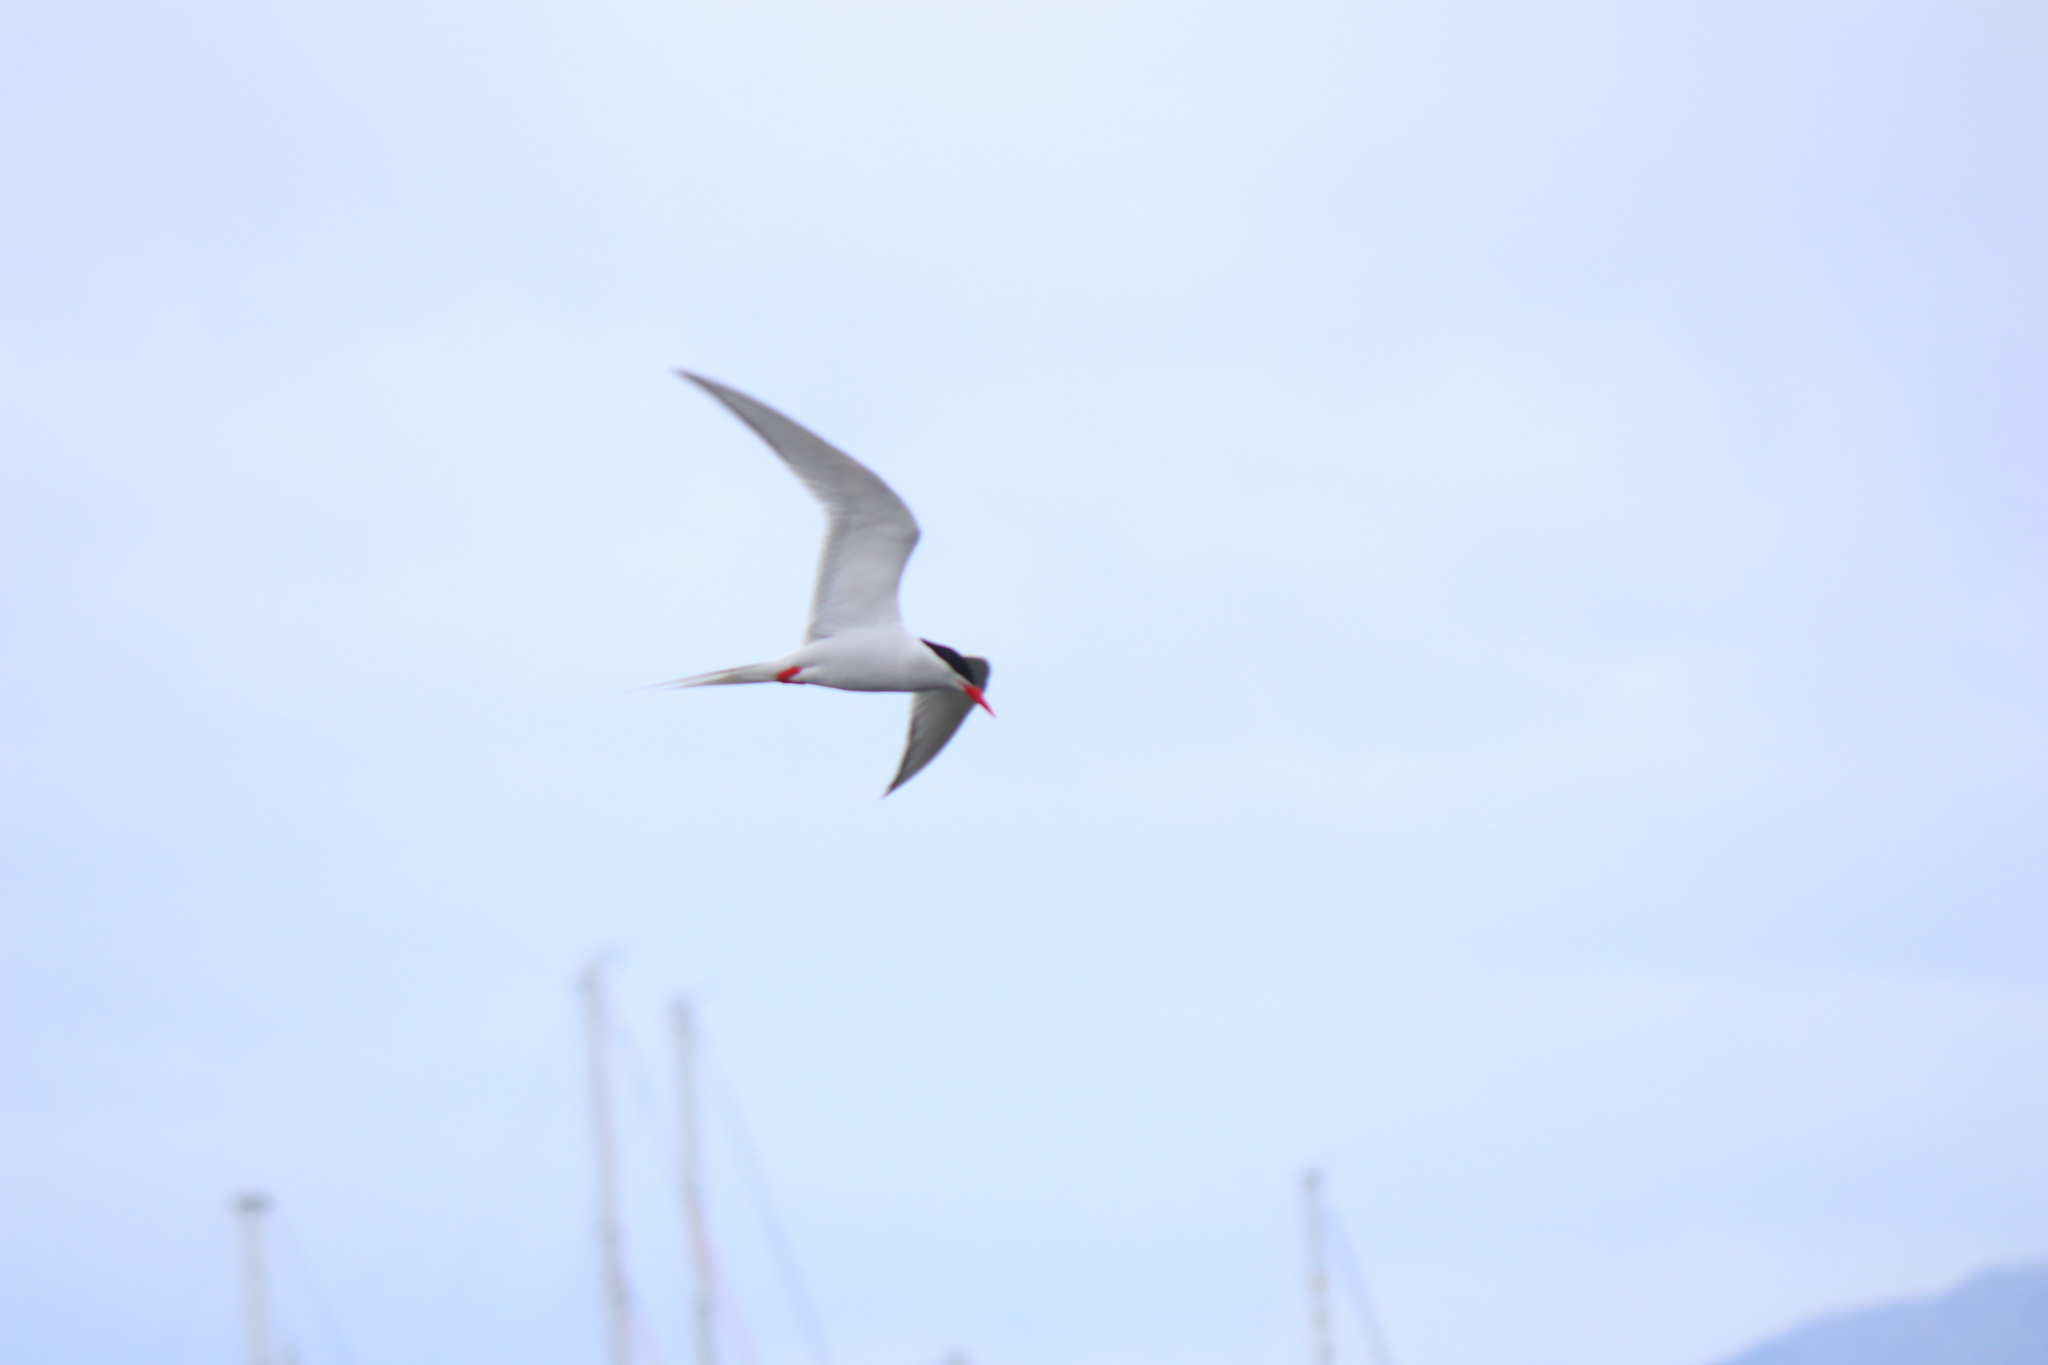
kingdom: Animalia
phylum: Chordata
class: Aves
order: Charadriiformes
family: Laridae
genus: Sterna
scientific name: Sterna hirundinacea
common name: South american tern
